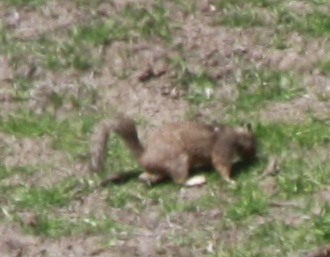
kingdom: Animalia
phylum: Chordata
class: Mammalia
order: Rodentia
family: Sciuridae
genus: Otospermophilus
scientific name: Otospermophilus beecheyi
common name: California ground squirrel
